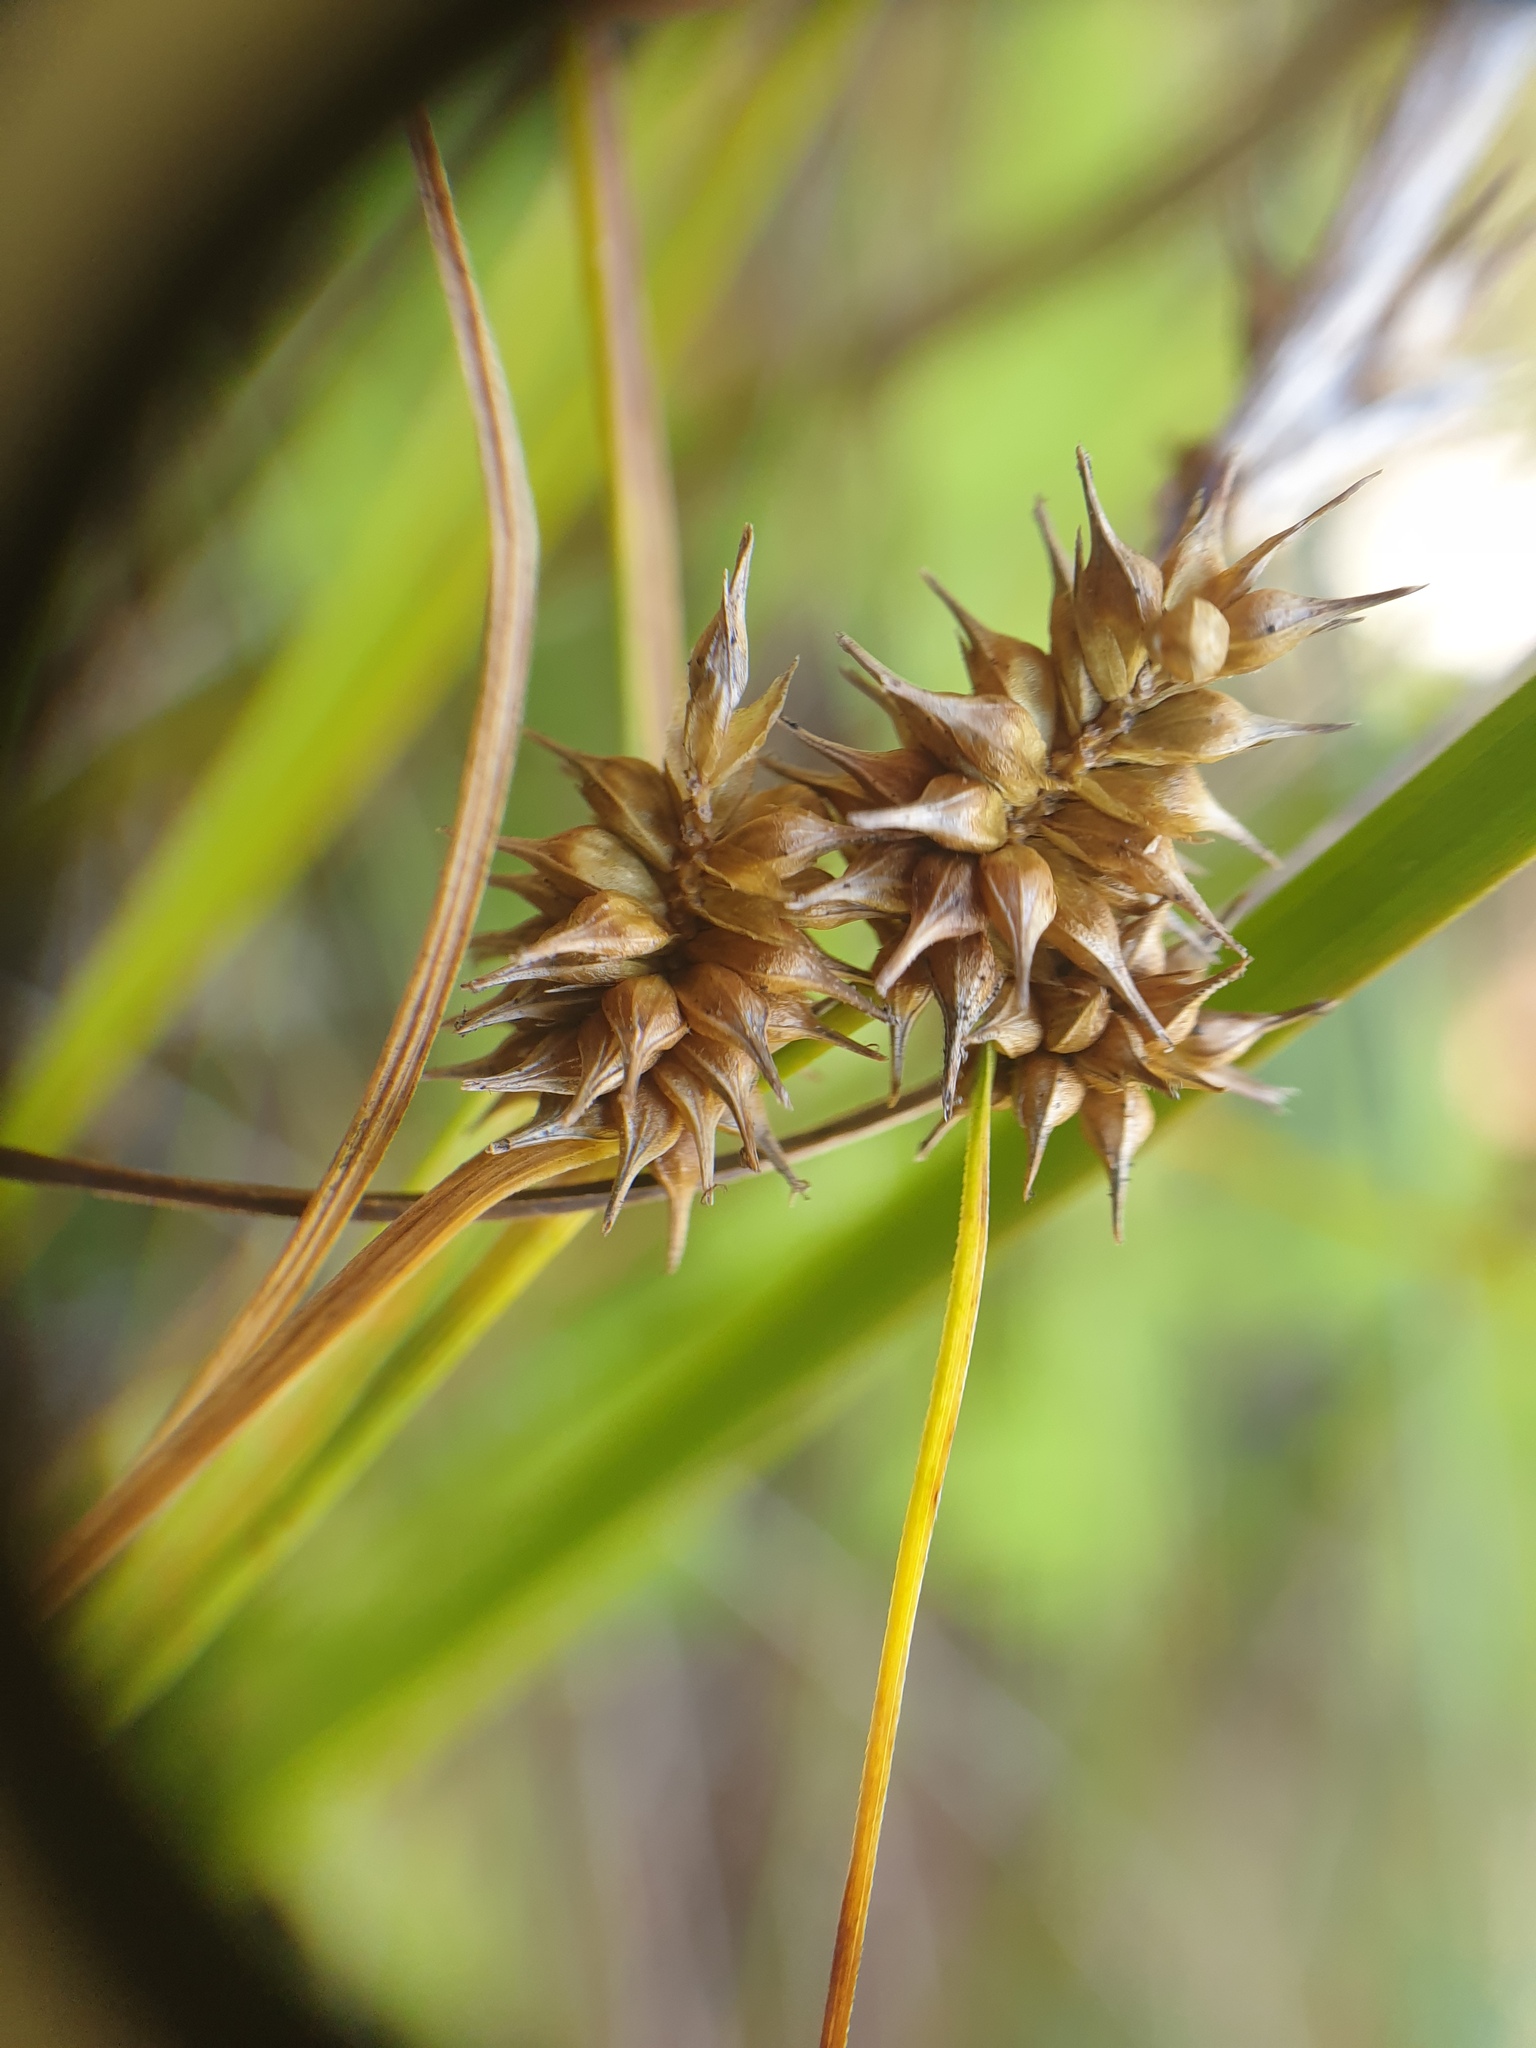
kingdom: Plantae
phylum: Tracheophyta
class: Liliopsida
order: Poales
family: Cyperaceae
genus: Carex
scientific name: Carex flava
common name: Large yellow-sedge
